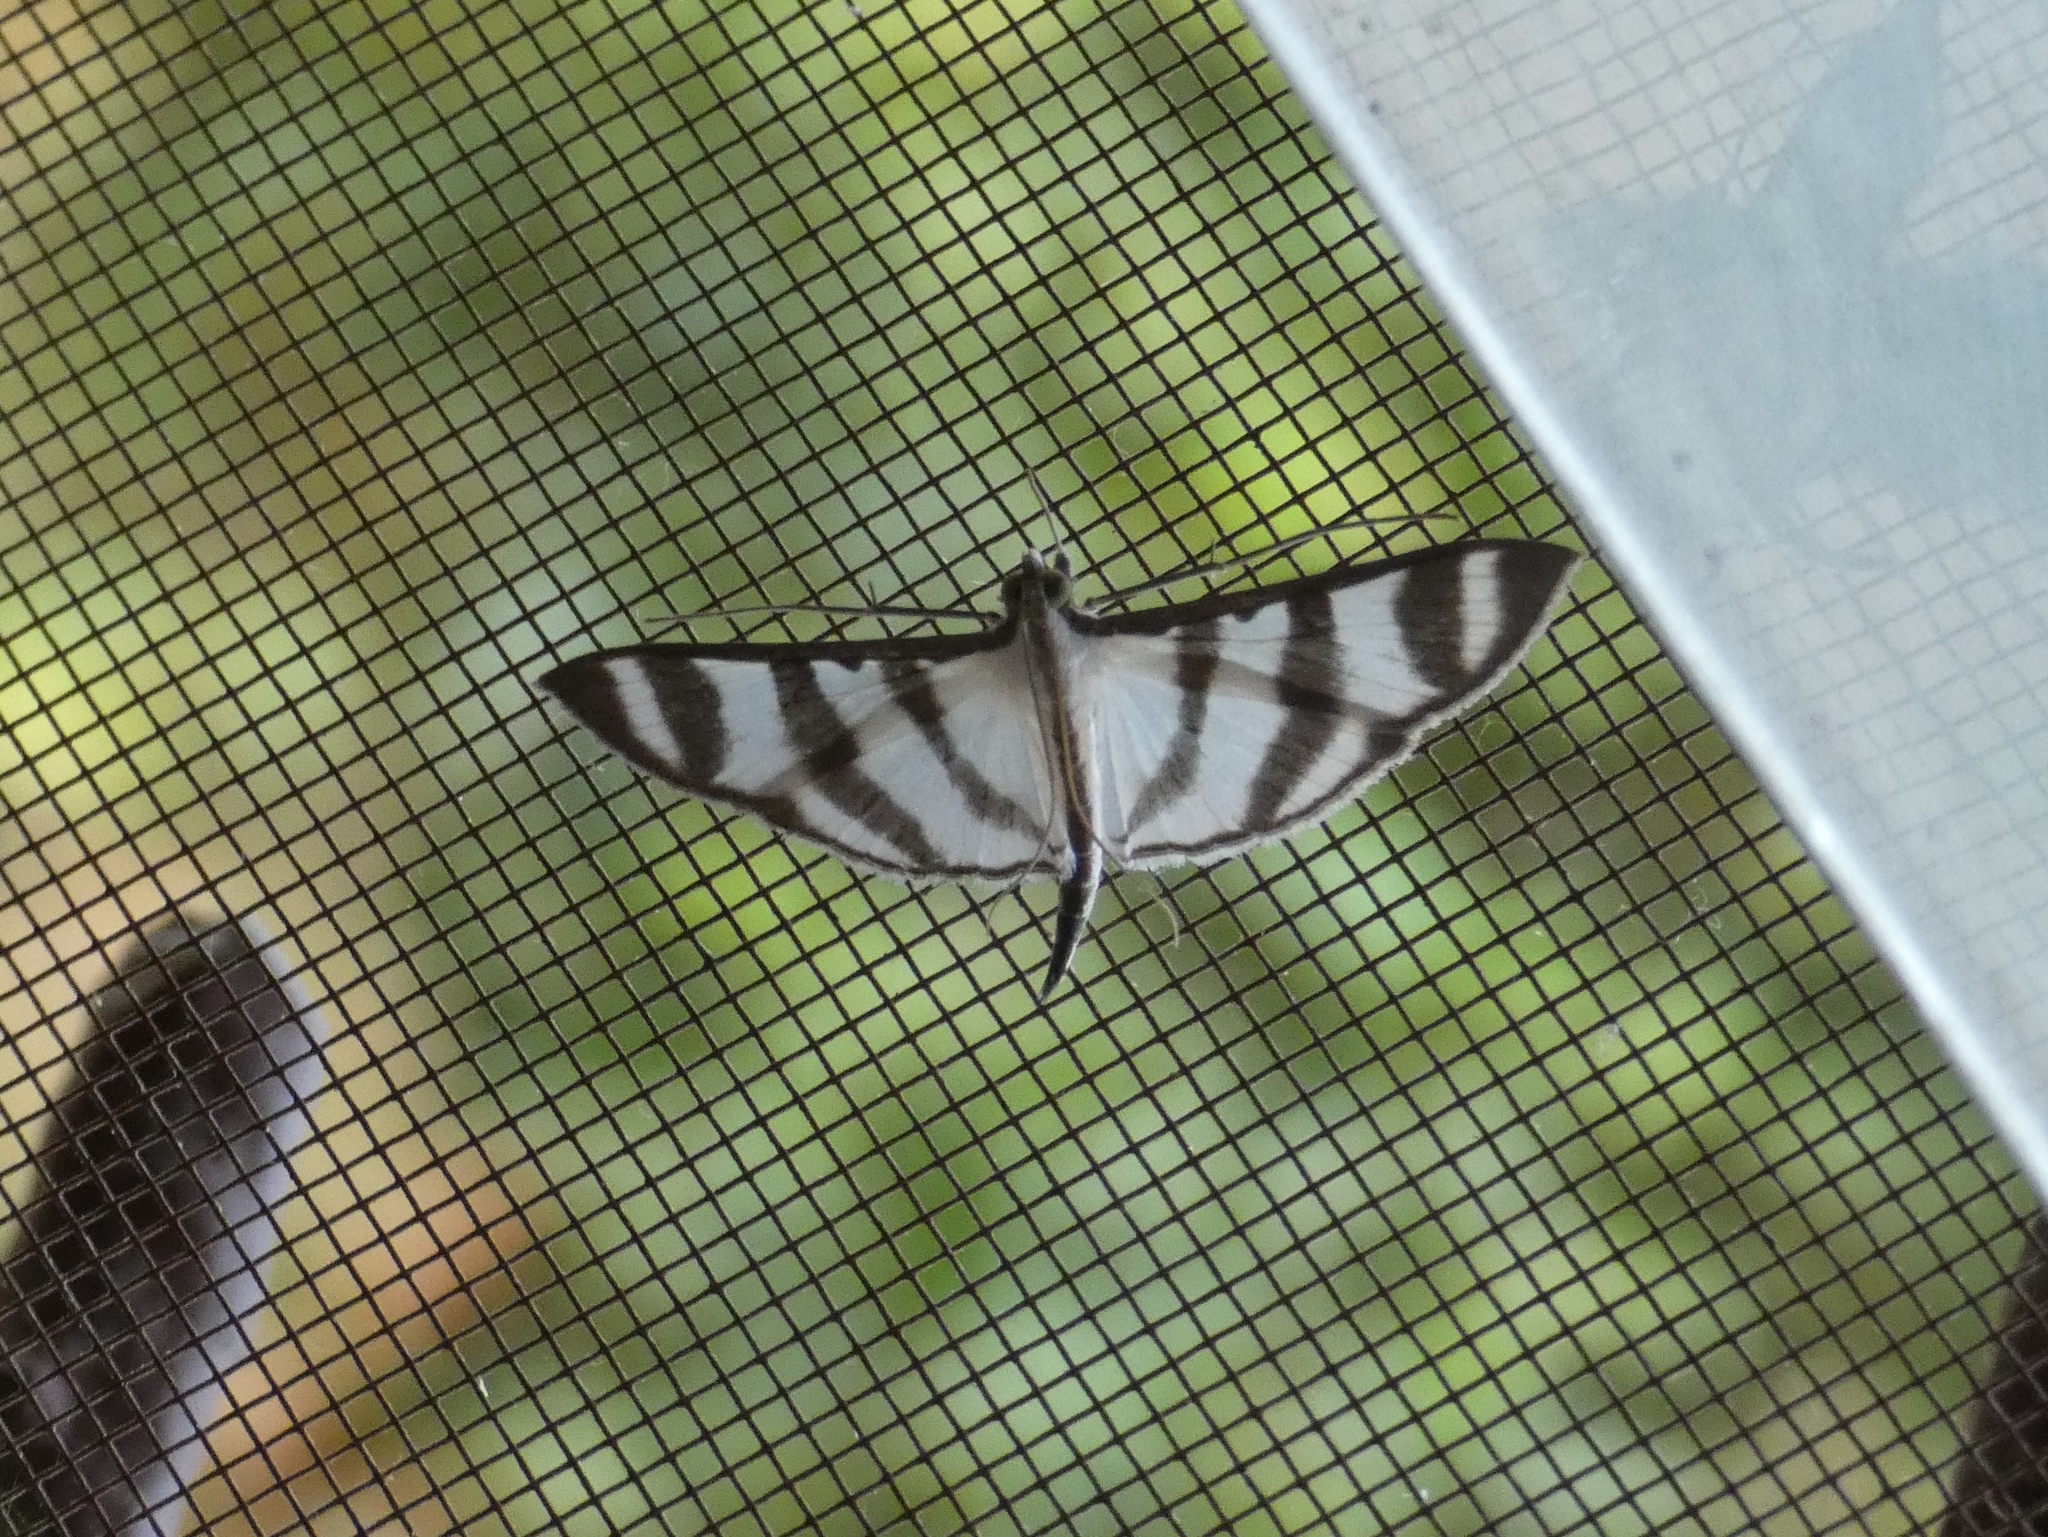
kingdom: Animalia
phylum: Arthropoda
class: Insecta
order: Lepidoptera
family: Crambidae
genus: Zebronia
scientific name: Zebronia phenice
